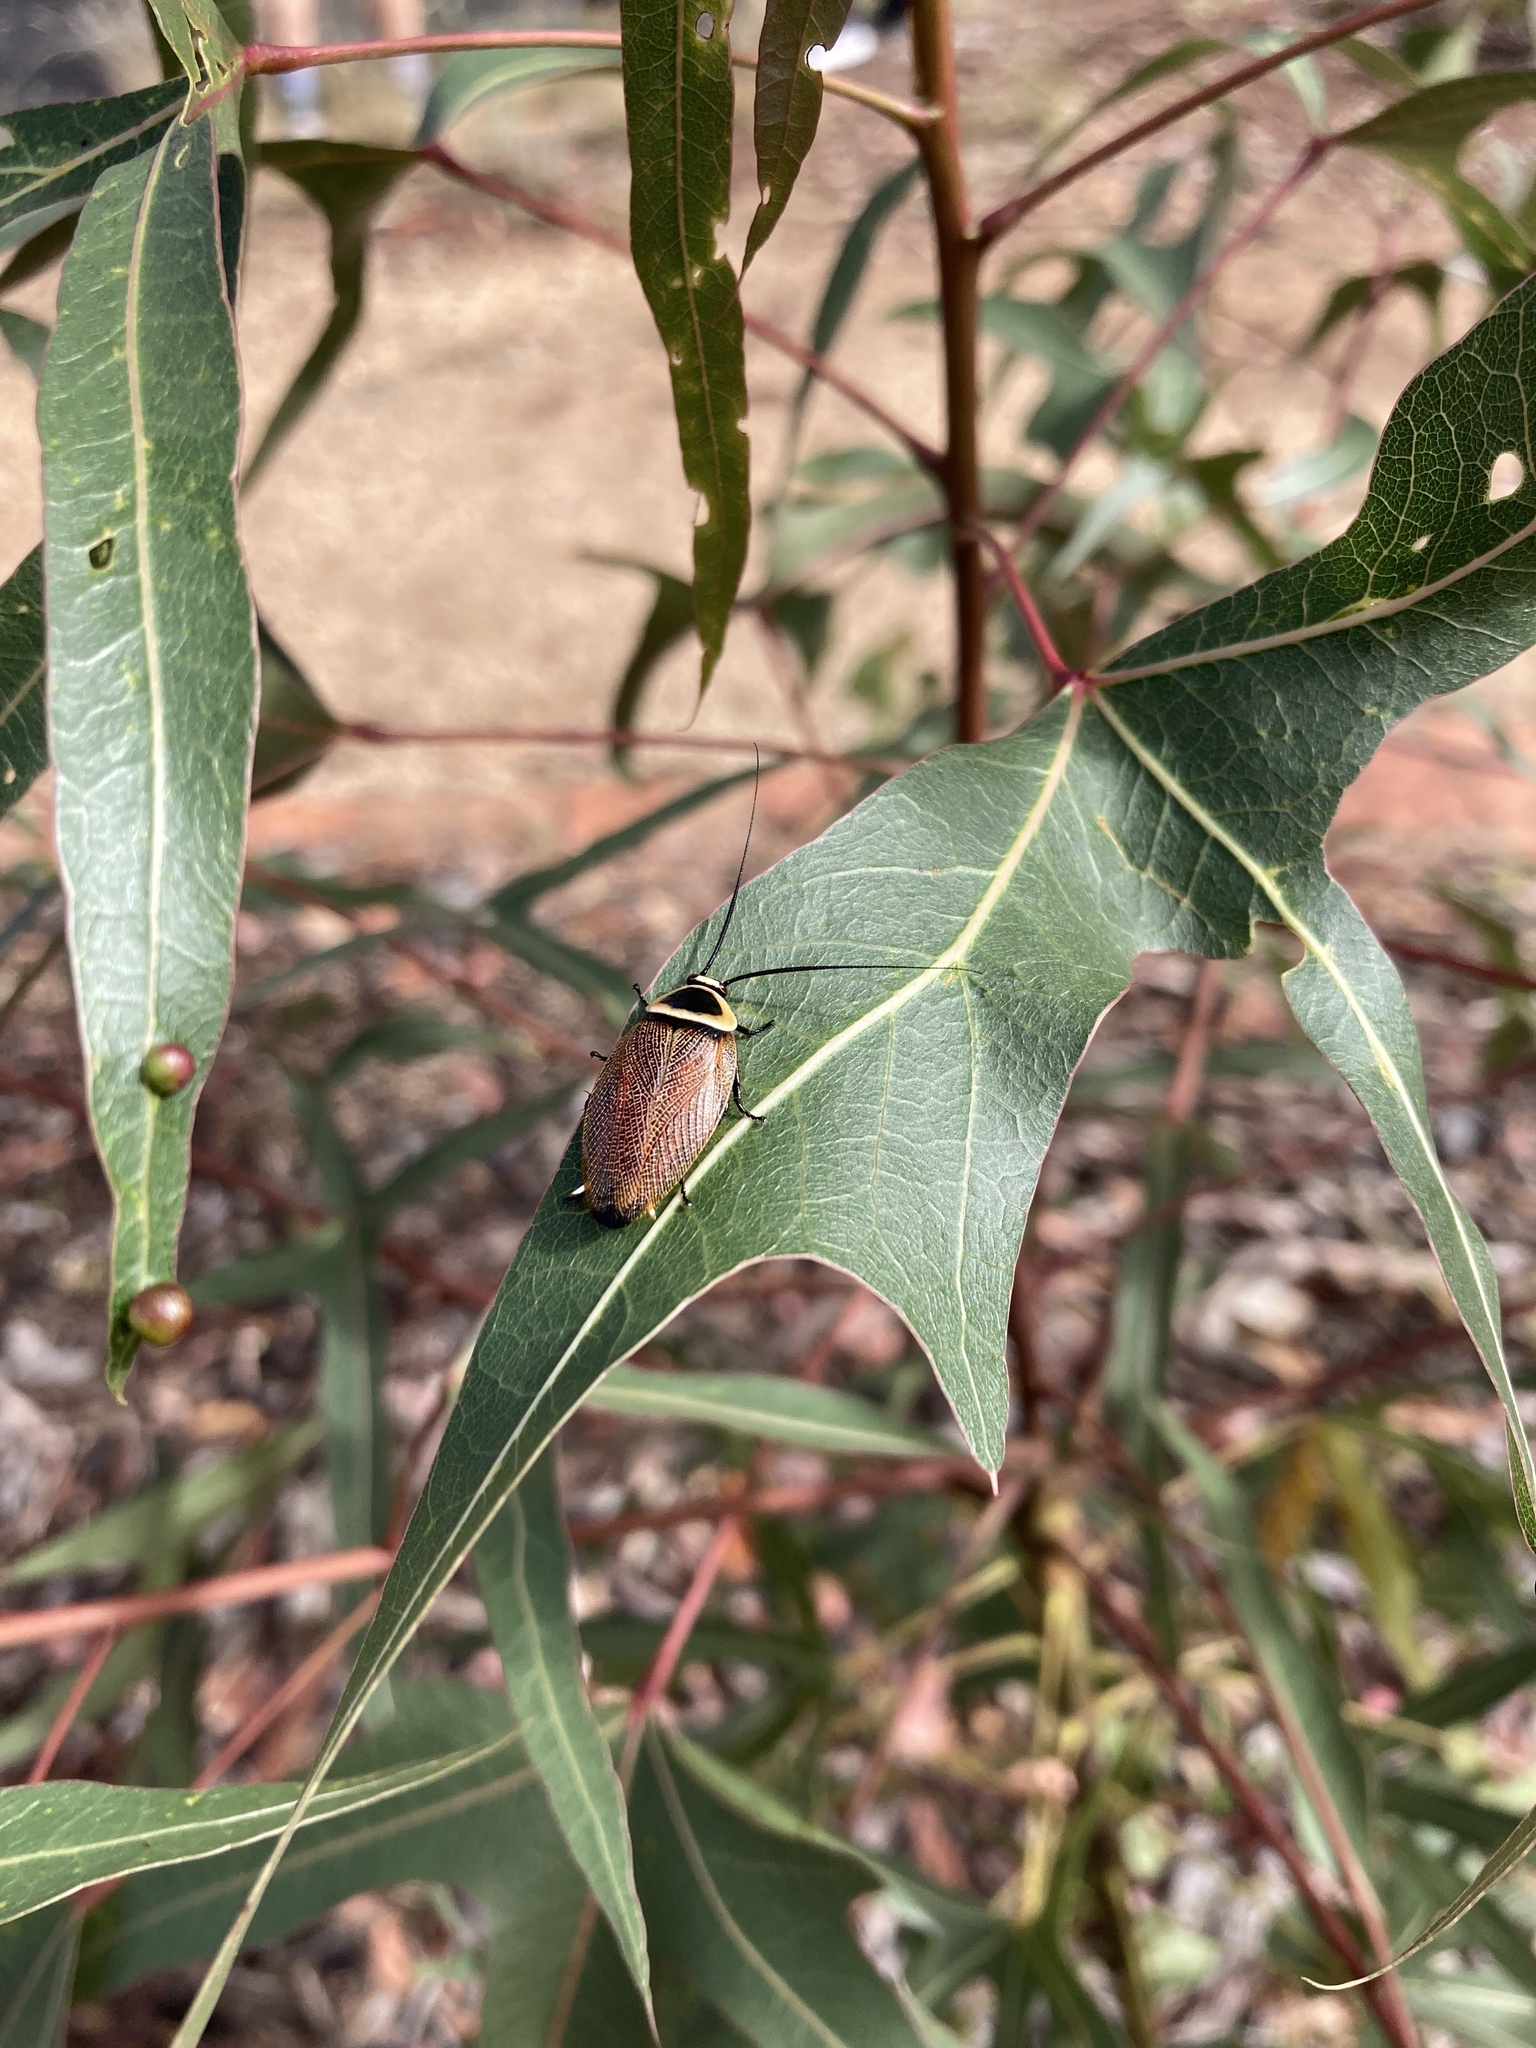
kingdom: Animalia
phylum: Arthropoda
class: Insecta
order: Blattodea
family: Ectobiidae
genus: Ellipsidion
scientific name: Ellipsidion australe
